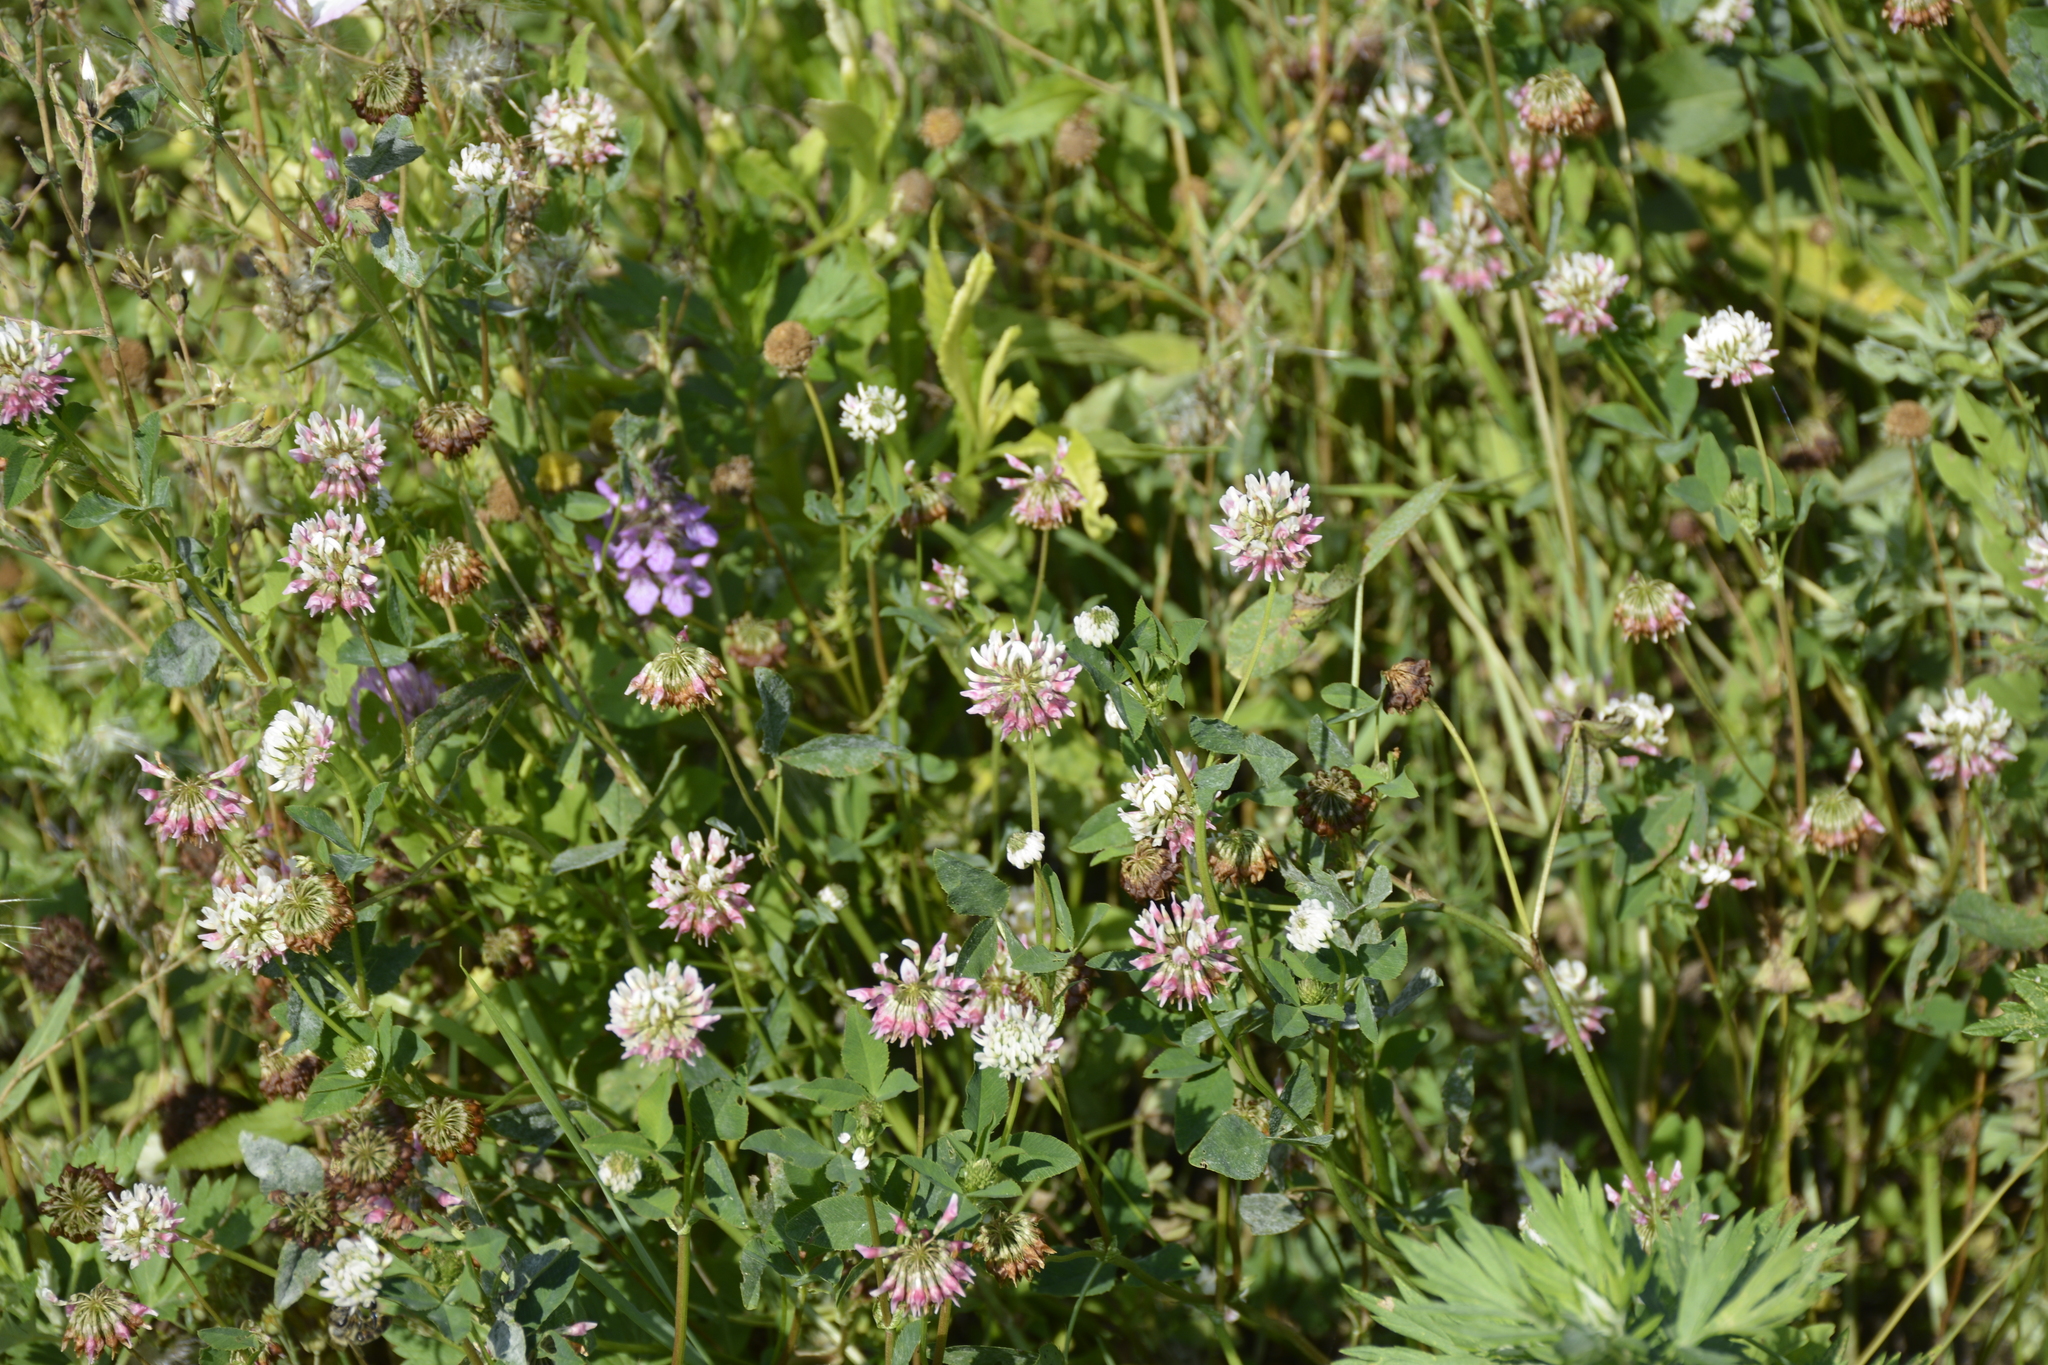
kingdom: Plantae
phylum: Tracheophyta
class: Magnoliopsida
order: Fabales
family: Fabaceae
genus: Trifolium
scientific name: Trifolium hybridum
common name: Alsike clover
